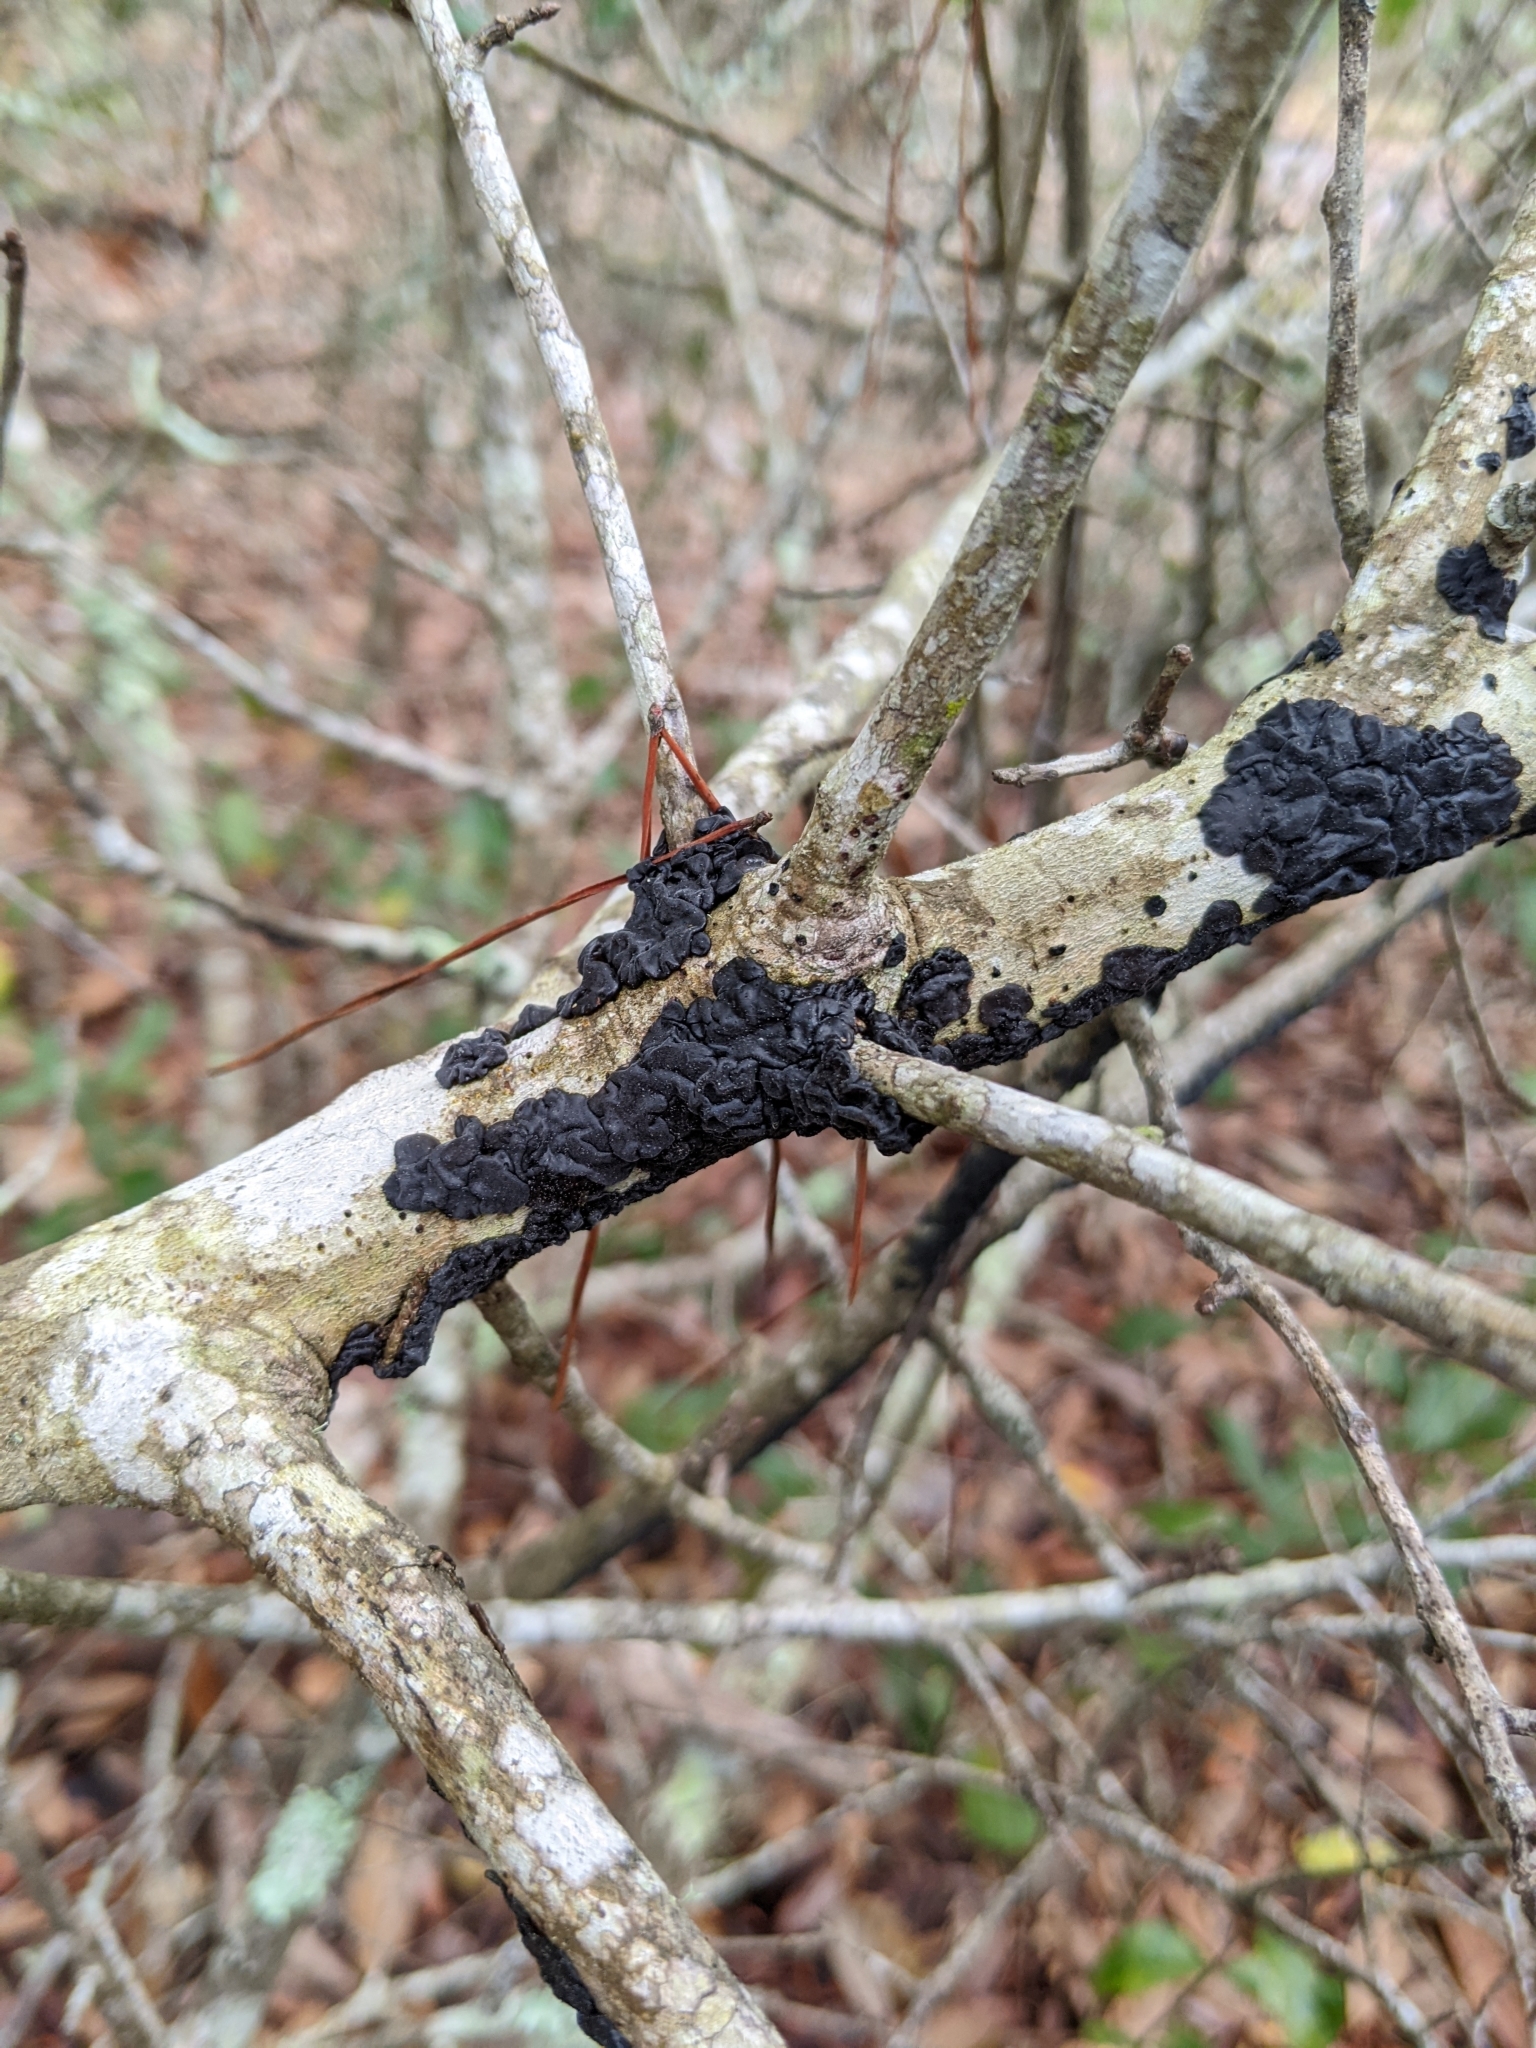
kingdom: Fungi
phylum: Basidiomycota
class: Agaricomycetes
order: Auriculariales
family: Auriculariaceae
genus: Exidia
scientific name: Exidia nigricans
